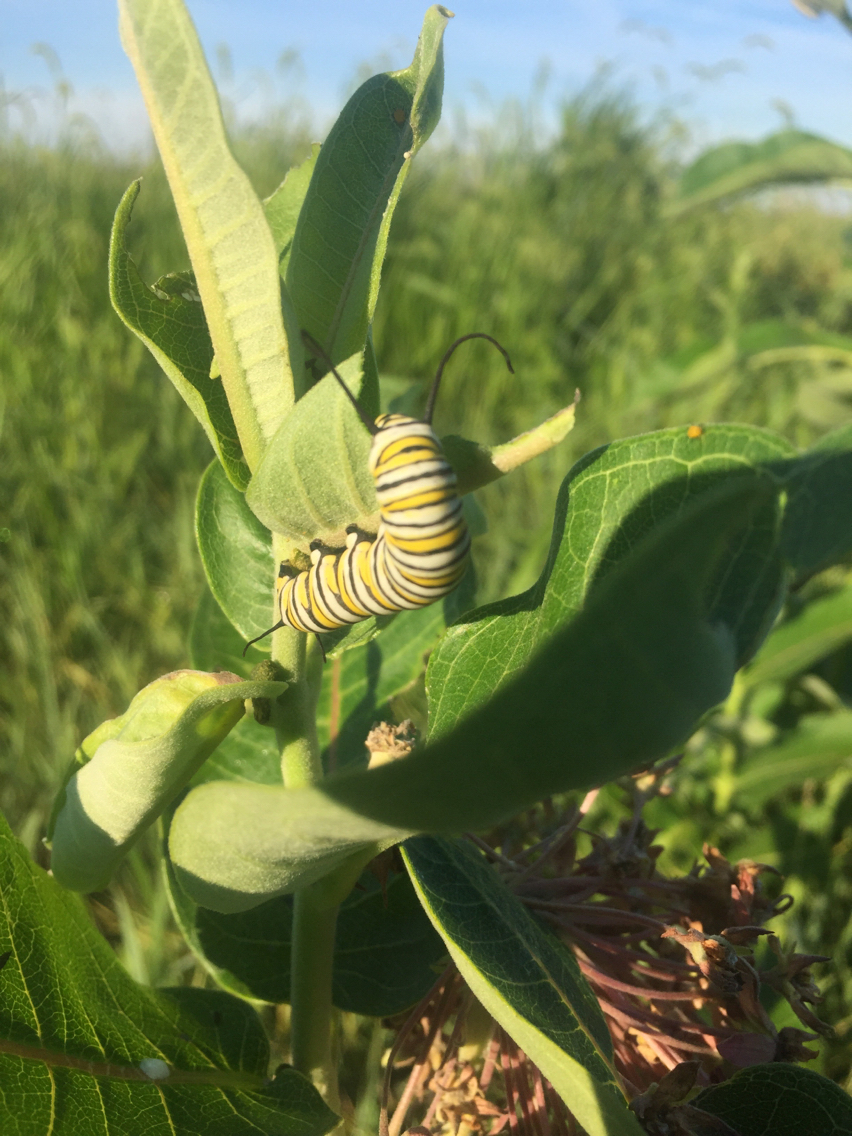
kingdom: Animalia
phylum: Arthropoda
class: Insecta
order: Lepidoptera
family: Nymphalidae
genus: Danaus
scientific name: Danaus plexippus
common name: Monarch
